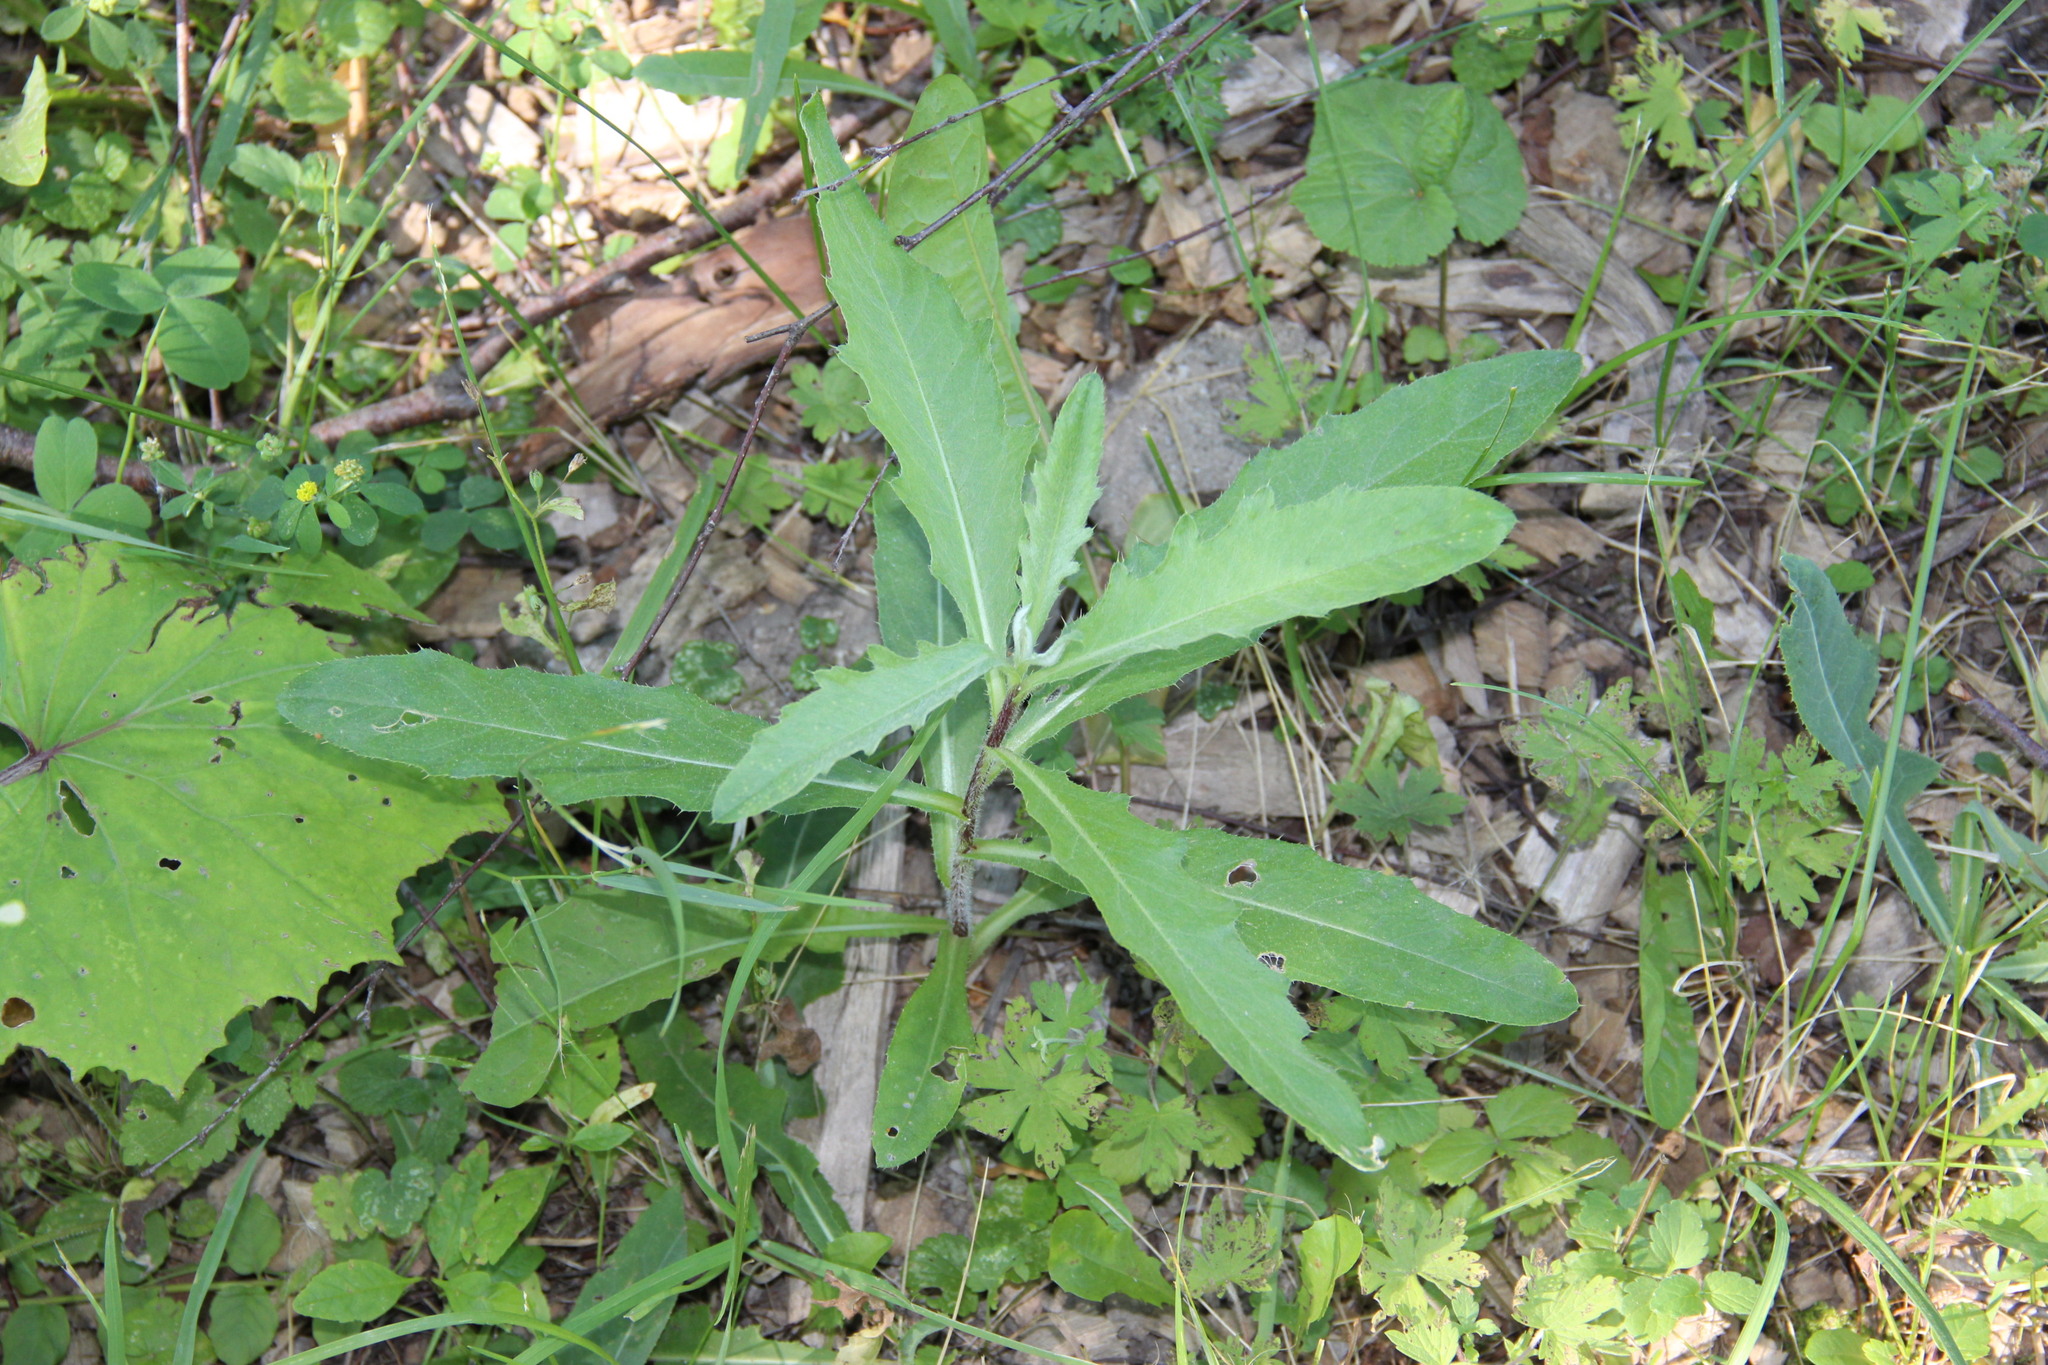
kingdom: Plantae
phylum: Tracheophyta
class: Magnoliopsida
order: Asterales
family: Asteraceae
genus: Cirsium
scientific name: Cirsium arvense
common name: Creeping thistle
